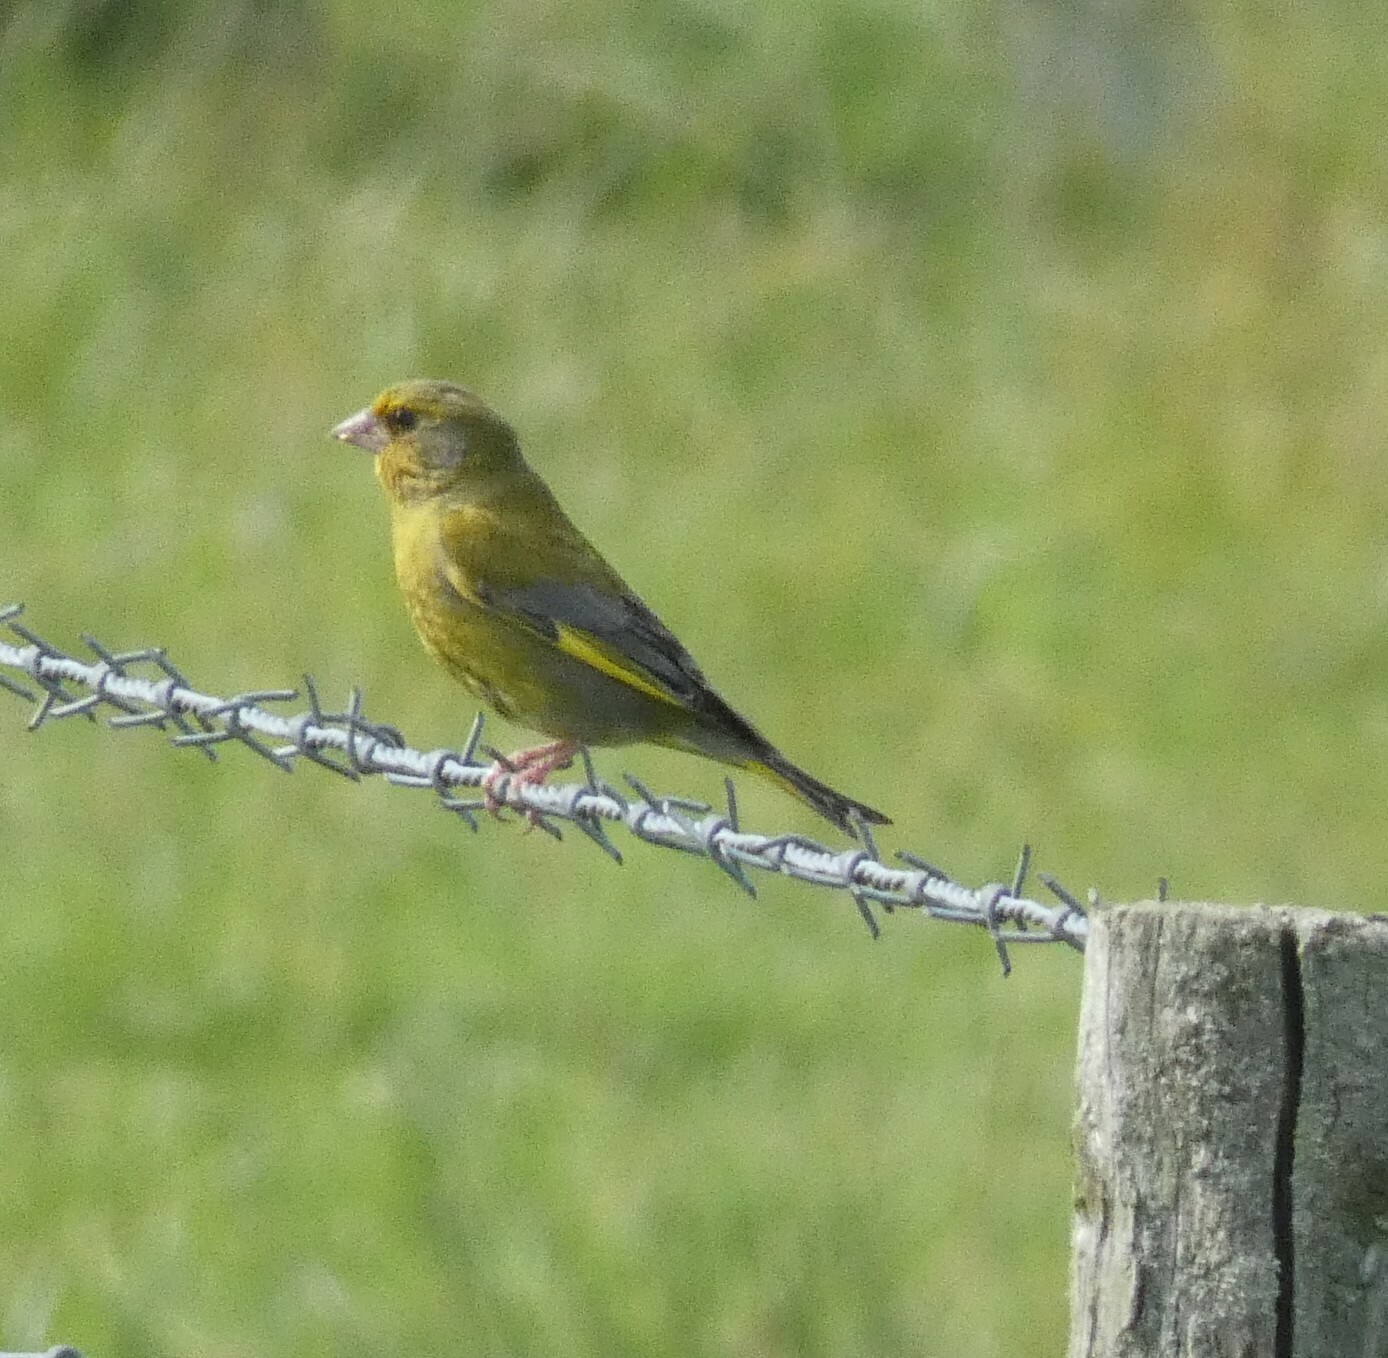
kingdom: Plantae
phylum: Tracheophyta
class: Liliopsida
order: Poales
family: Poaceae
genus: Chloris
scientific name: Chloris chloris
